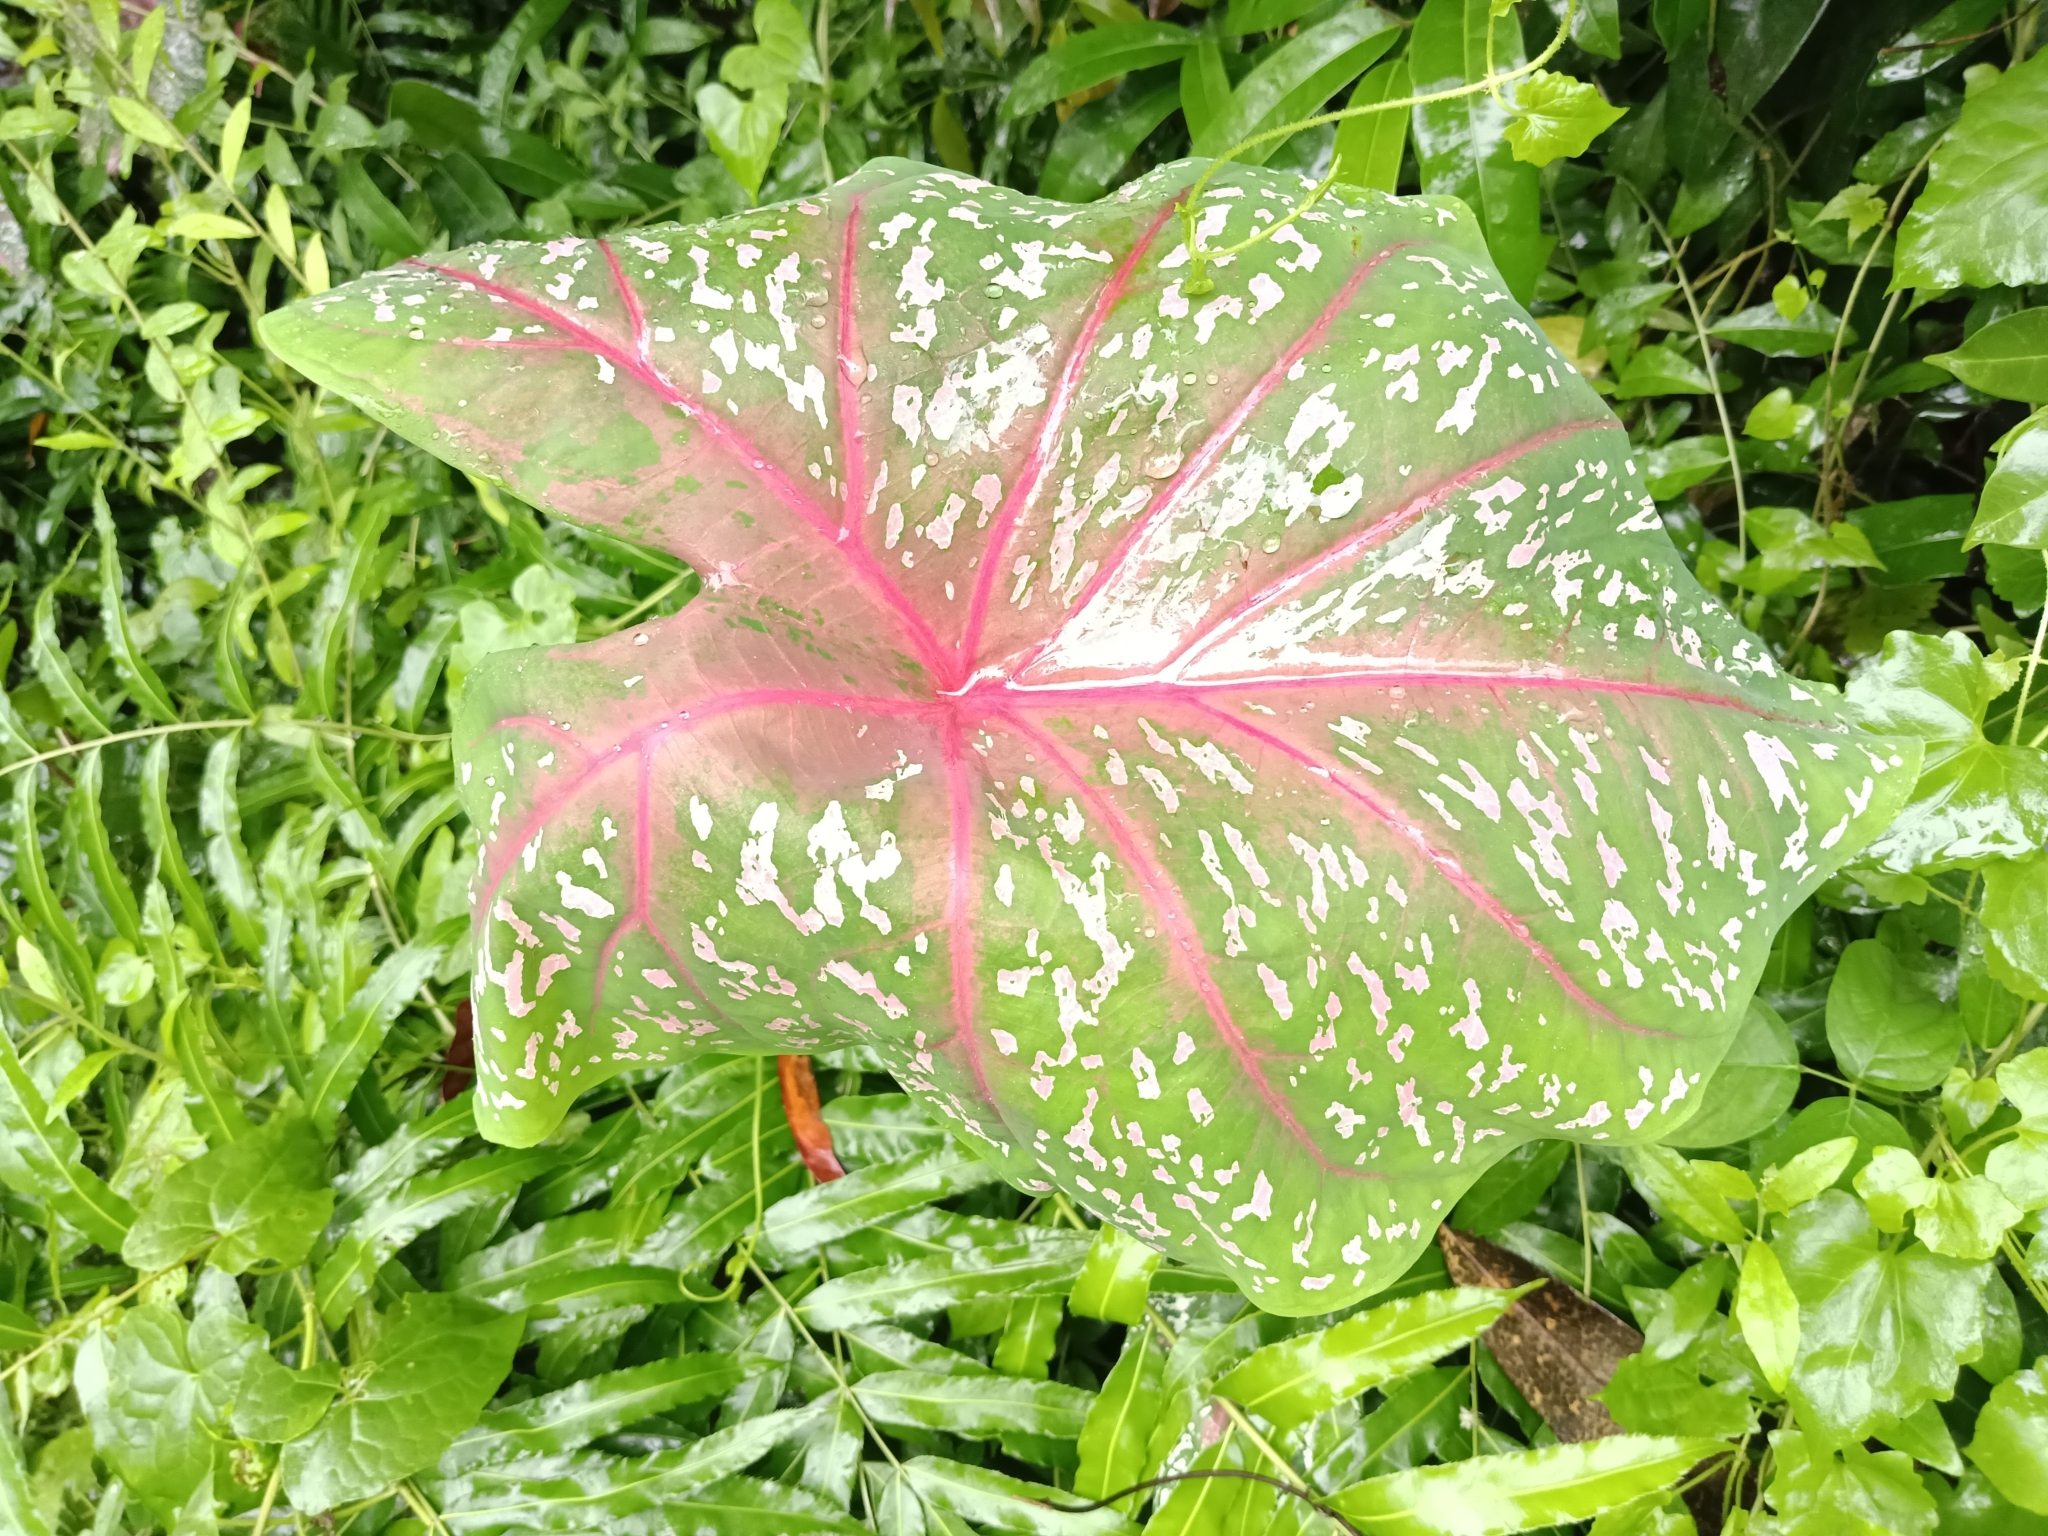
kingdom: Plantae
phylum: Tracheophyta
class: Liliopsida
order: Alismatales
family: Araceae
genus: Caladium
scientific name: Caladium bicolor
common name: Artist's pallet
